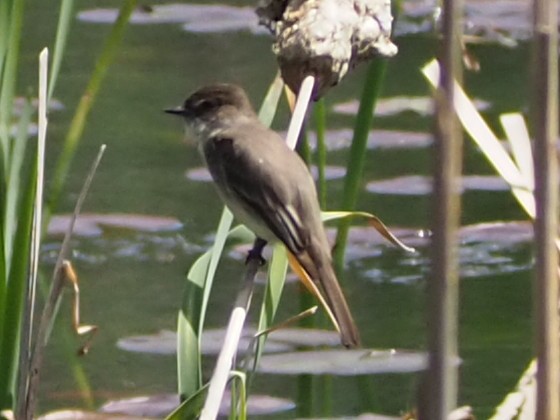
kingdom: Animalia
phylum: Chordata
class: Aves
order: Passeriformes
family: Tyrannidae
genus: Sayornis
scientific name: Sayornis phoebe
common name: Eastern phoebe
